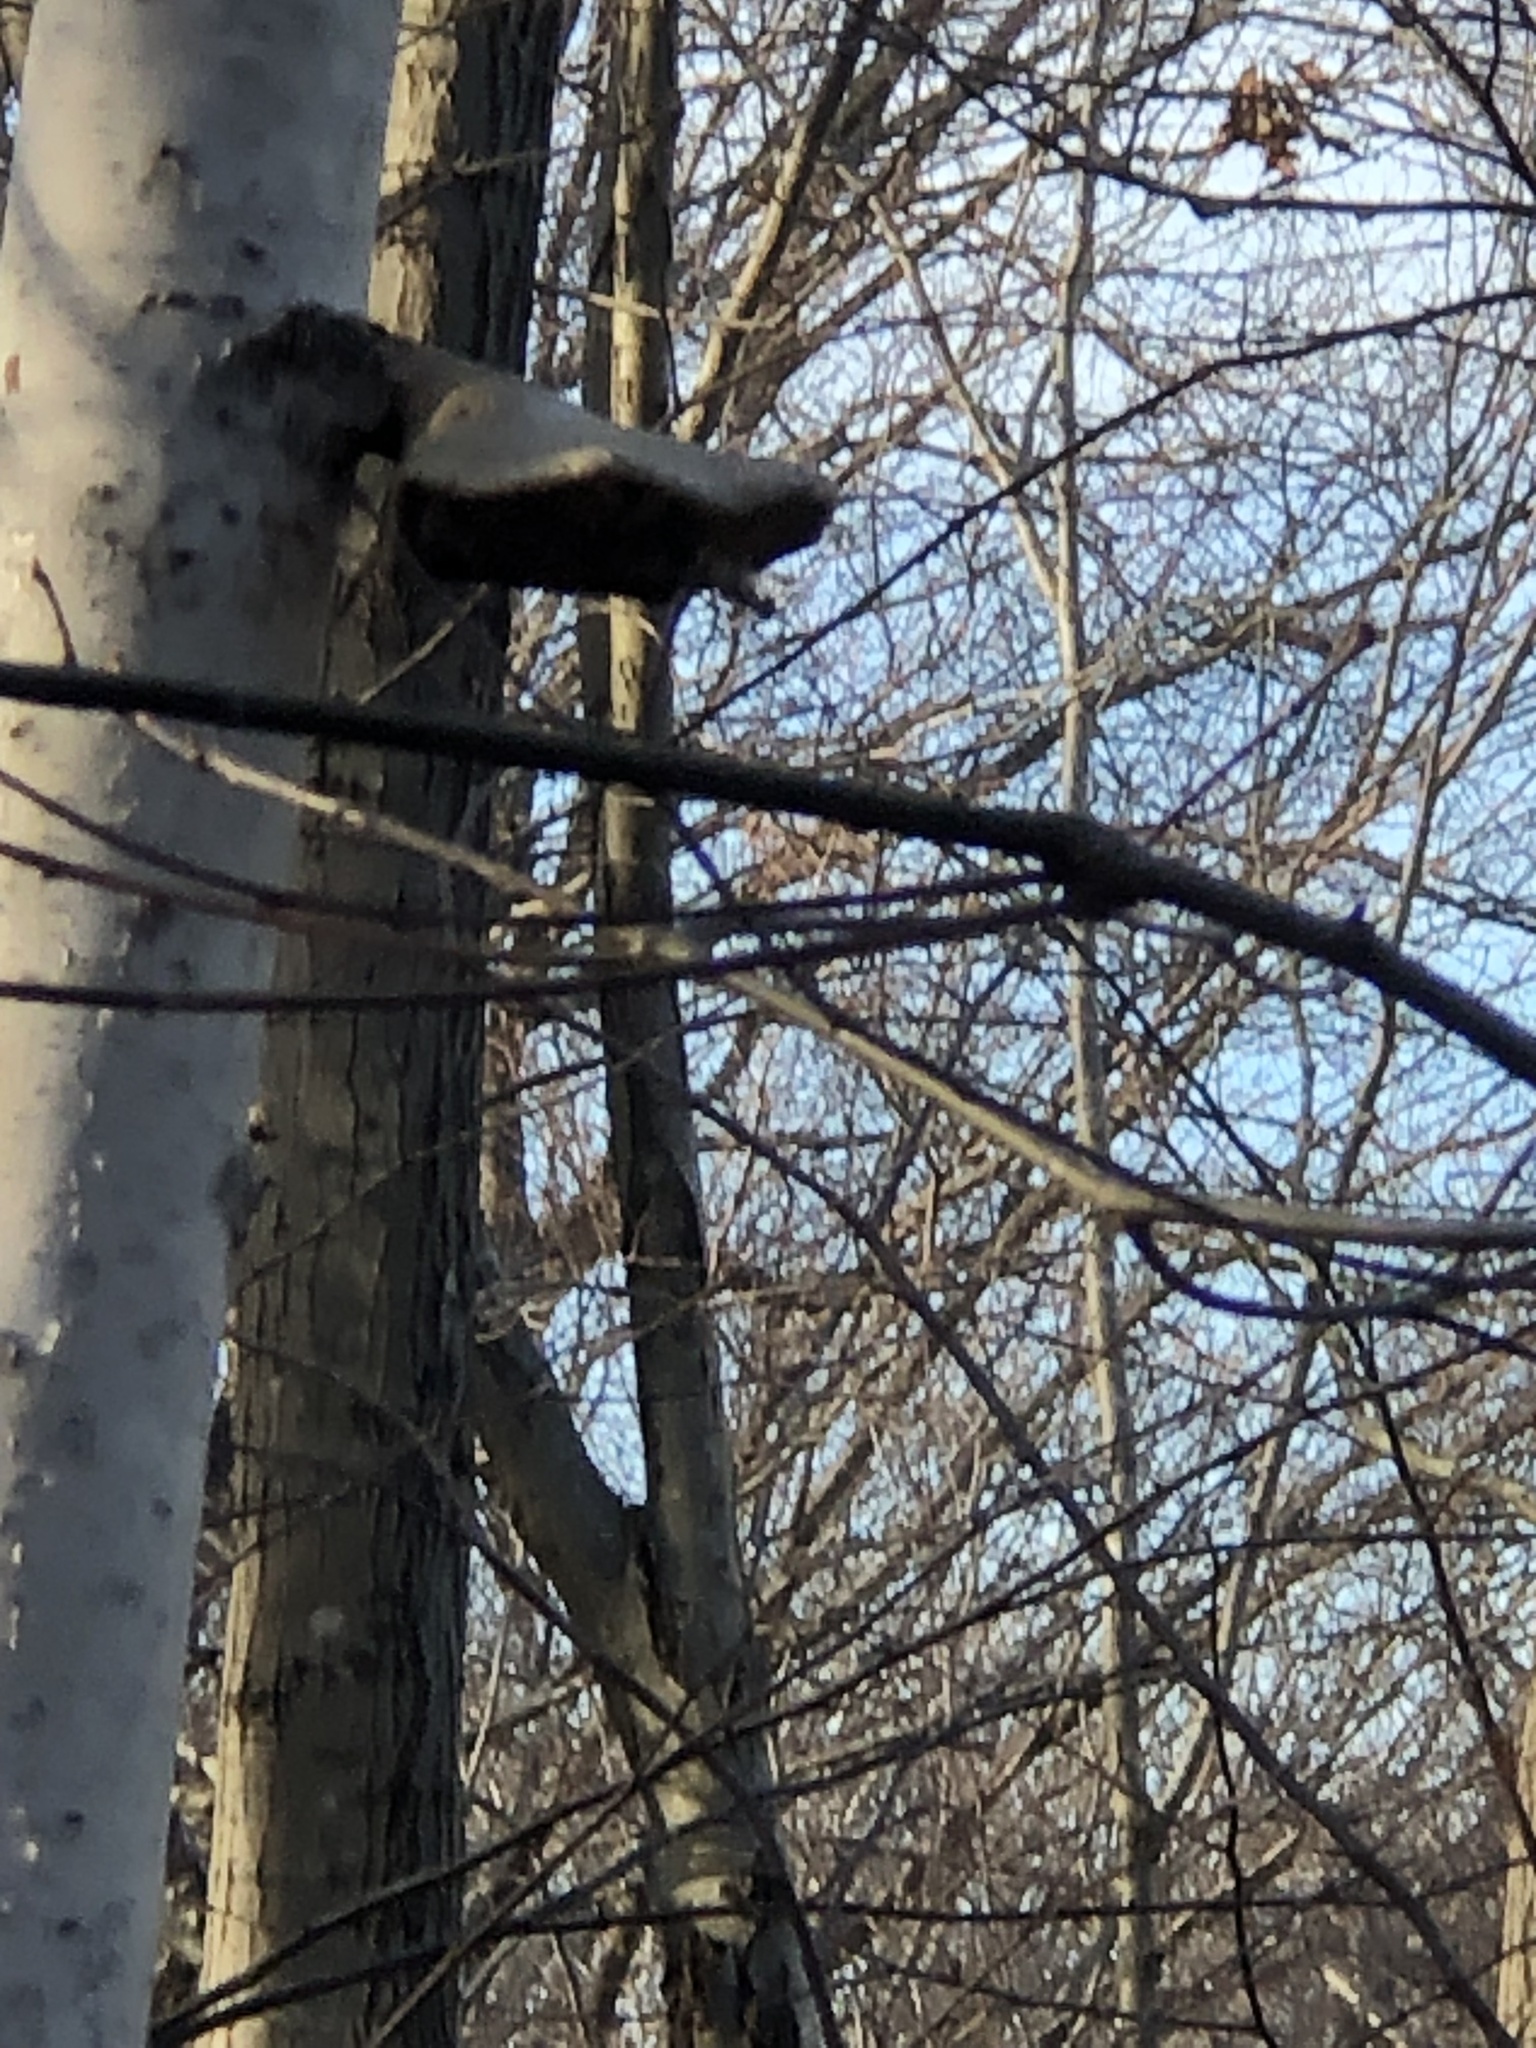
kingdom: Fungi
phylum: Basidiomycota
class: Agaricomycetes
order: Polyporales
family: Fomitopsidaceae
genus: Fomitopsis
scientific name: Fomitopsis betulina
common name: Birch polypore
